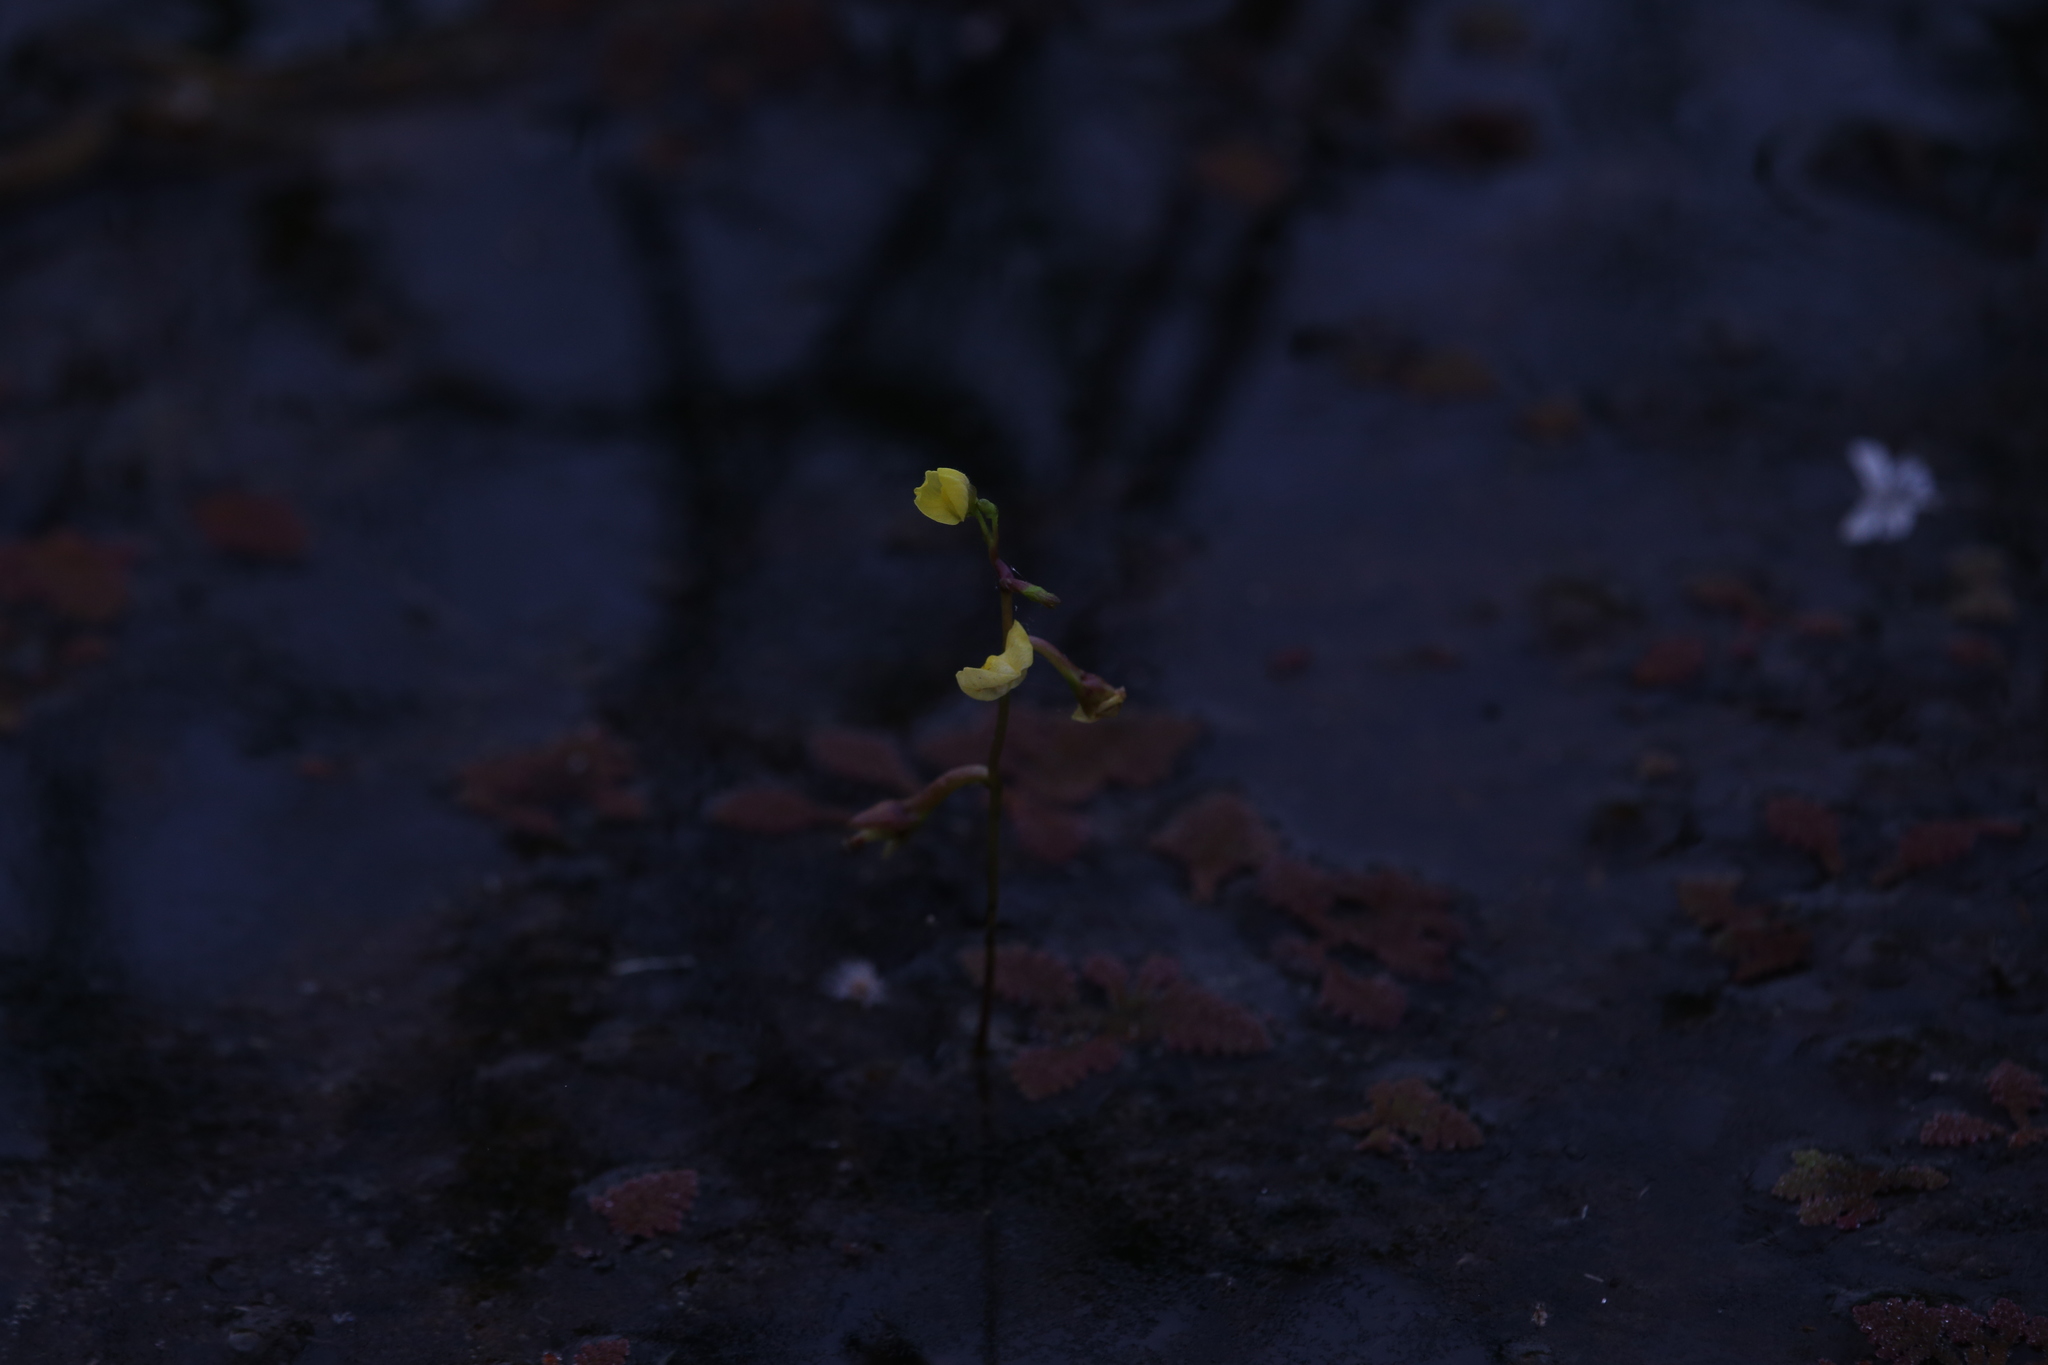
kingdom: Plantae
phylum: Tracheophyta
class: Magnoliopsida
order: Lamiales
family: Lentibulariaceae
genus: Utricularia
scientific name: Utricularia aurea
